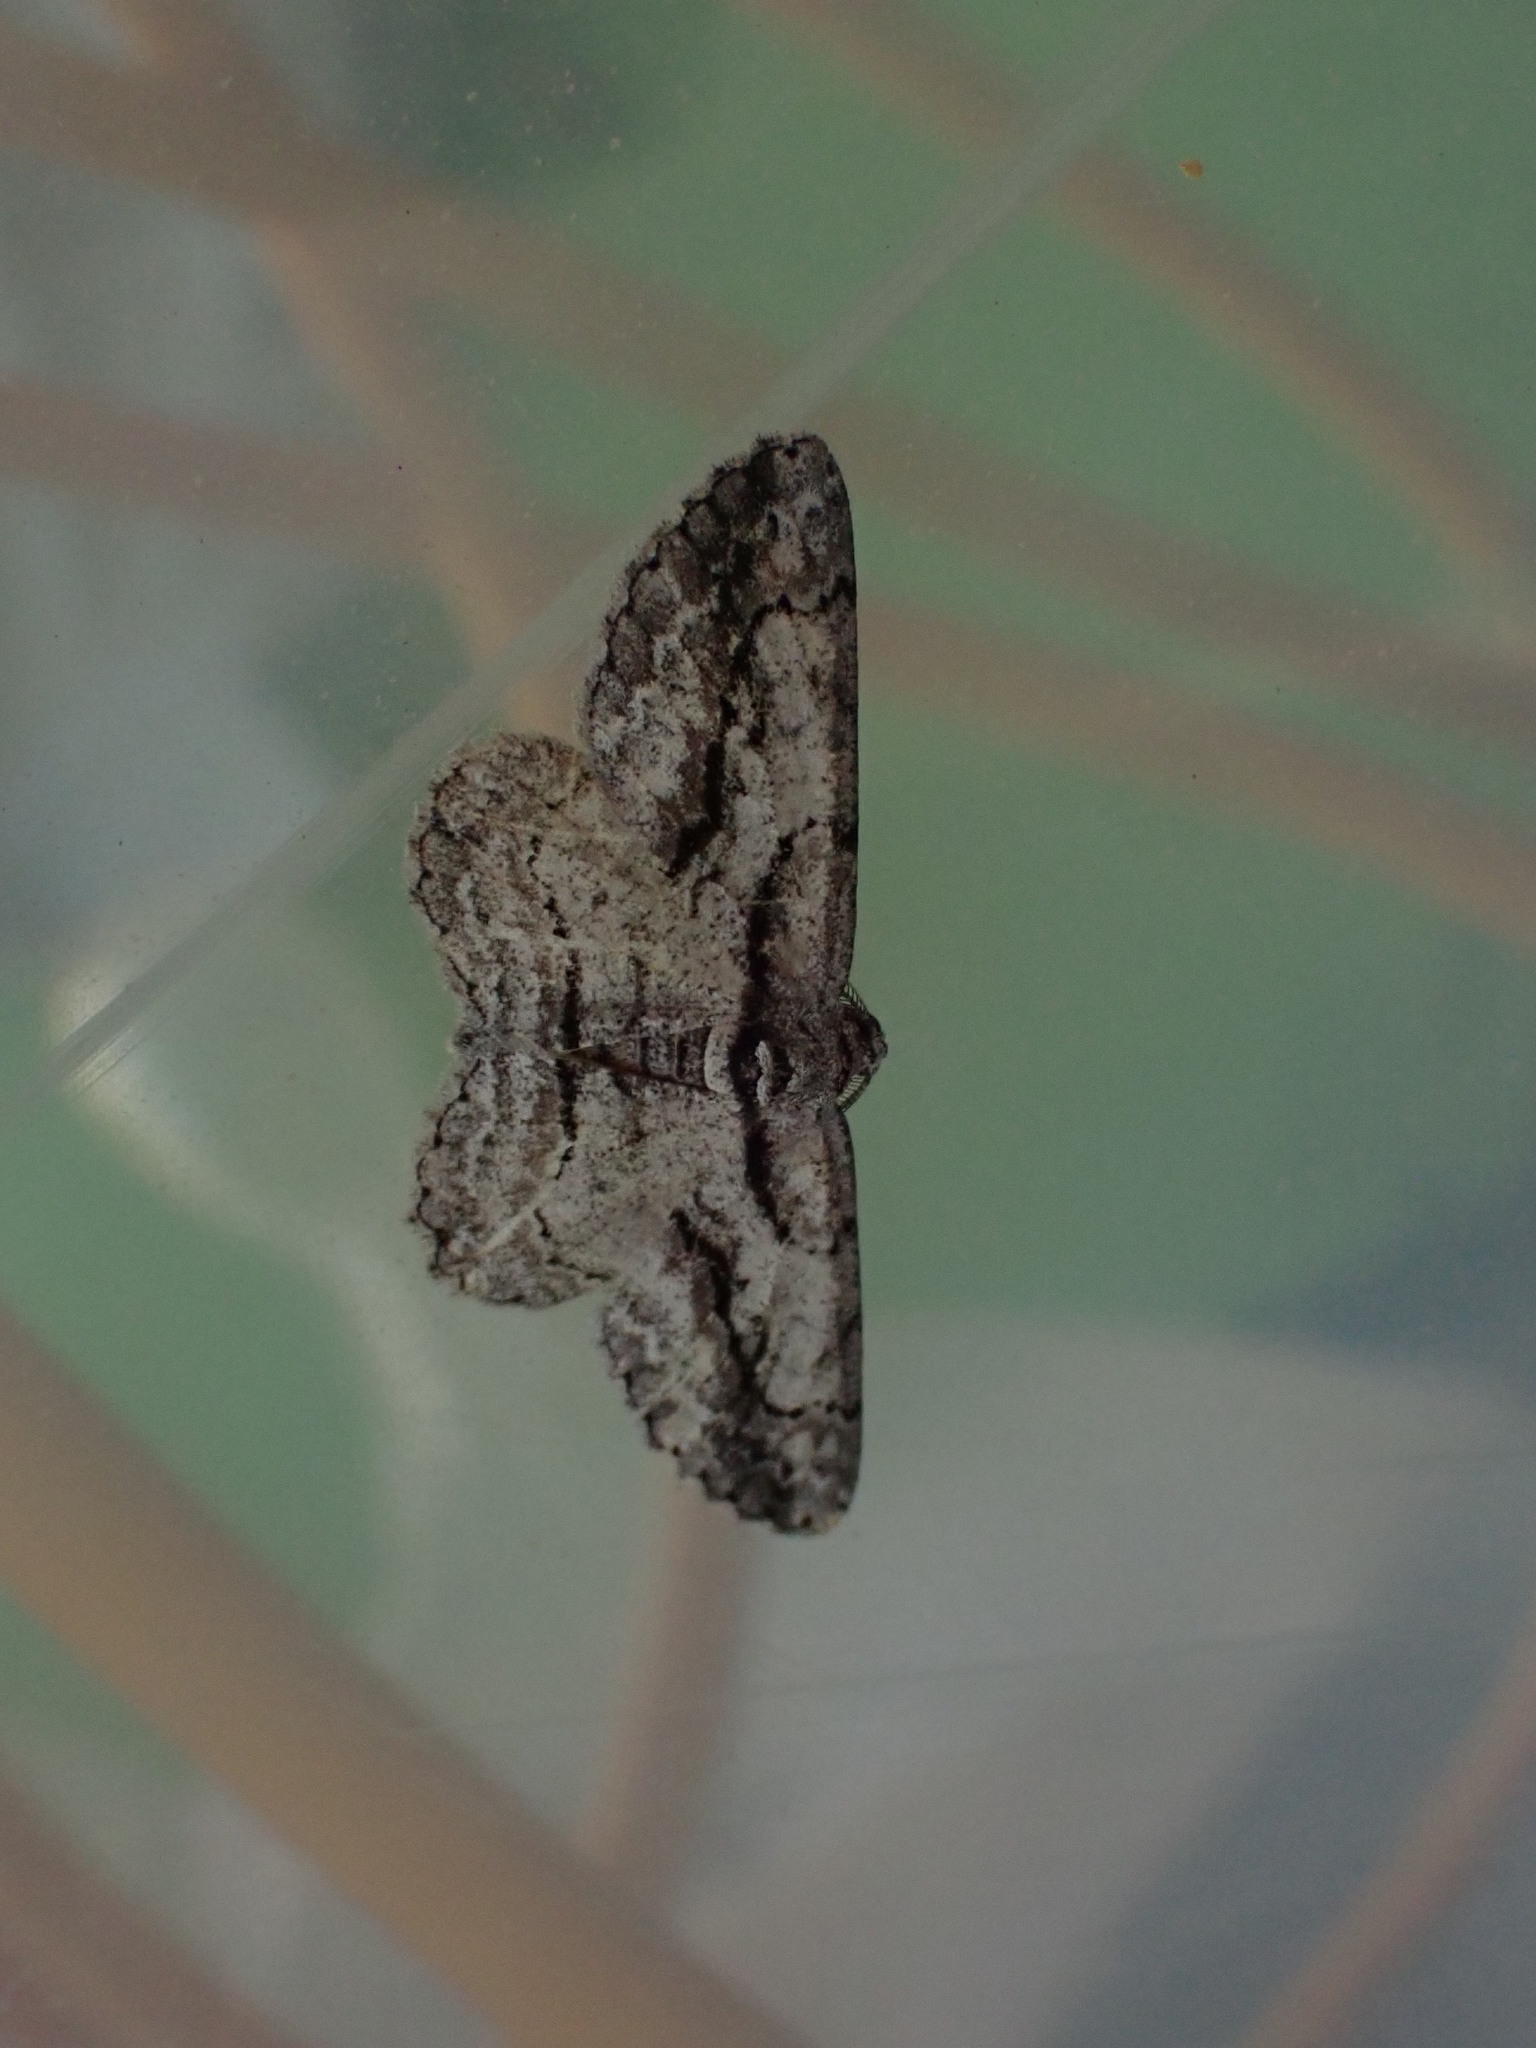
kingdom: Animalia
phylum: Arthropoda
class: Insecta
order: Lepidoptera
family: Geometridae
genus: Anavitrinella
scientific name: Anavitrinella pampinaria
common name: Common gray
